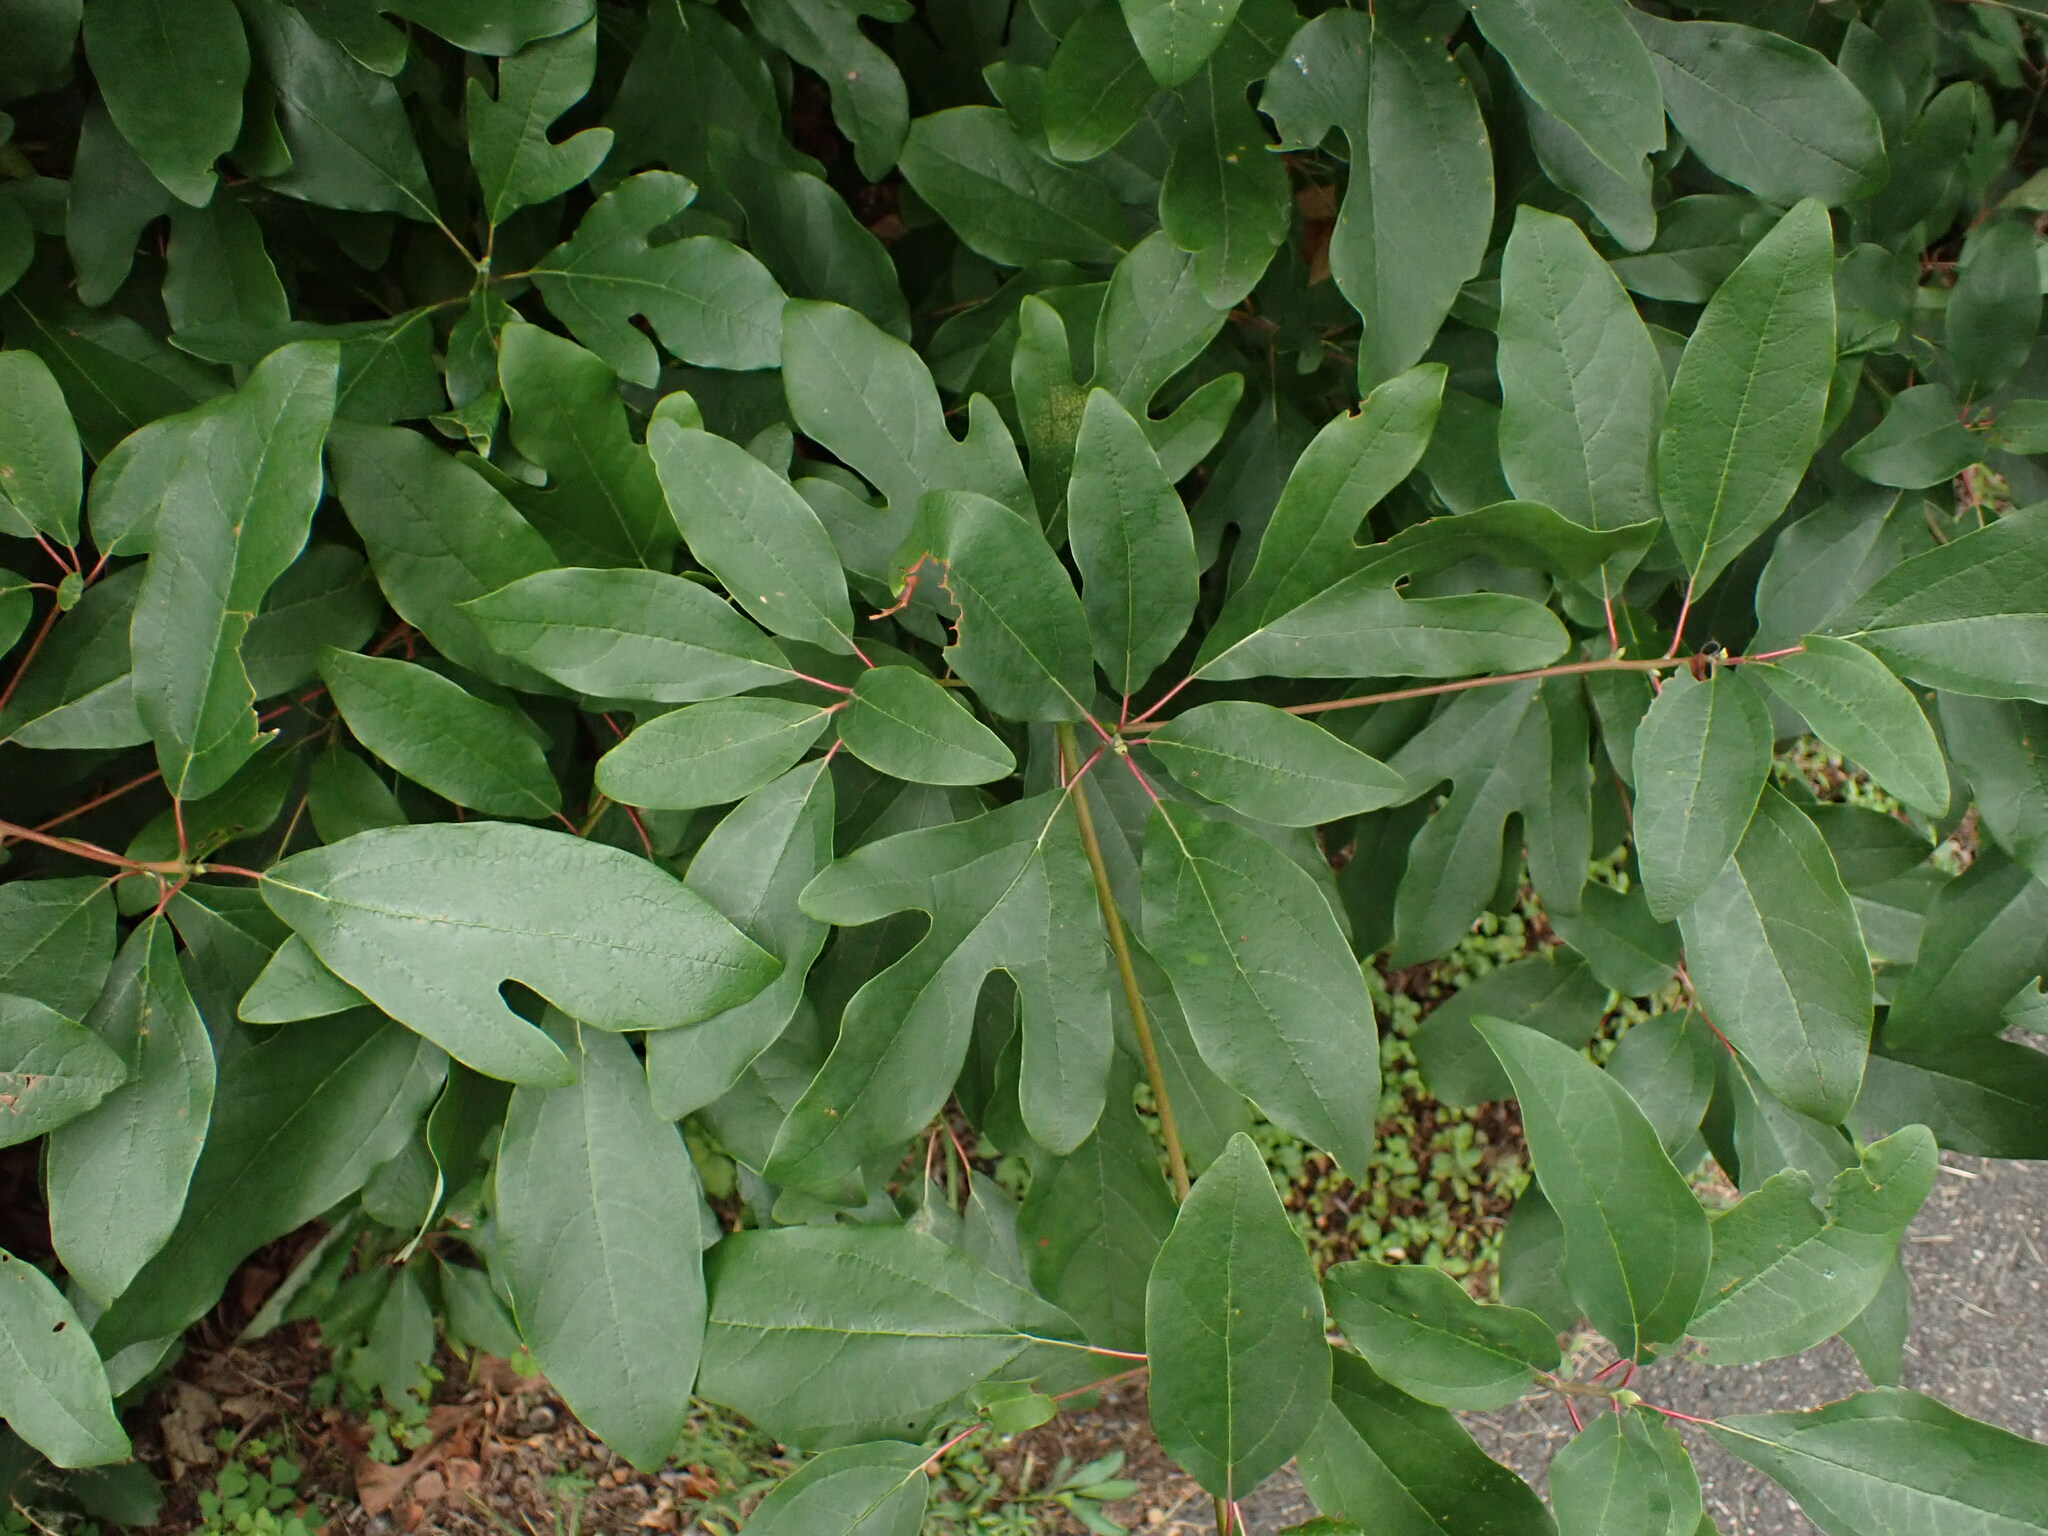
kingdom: Plantae
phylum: Tracheophyta
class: Magnoliopsida
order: Laurales
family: Lauraceae
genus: Sassafras
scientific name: Sassafras albidum
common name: Sassafras
